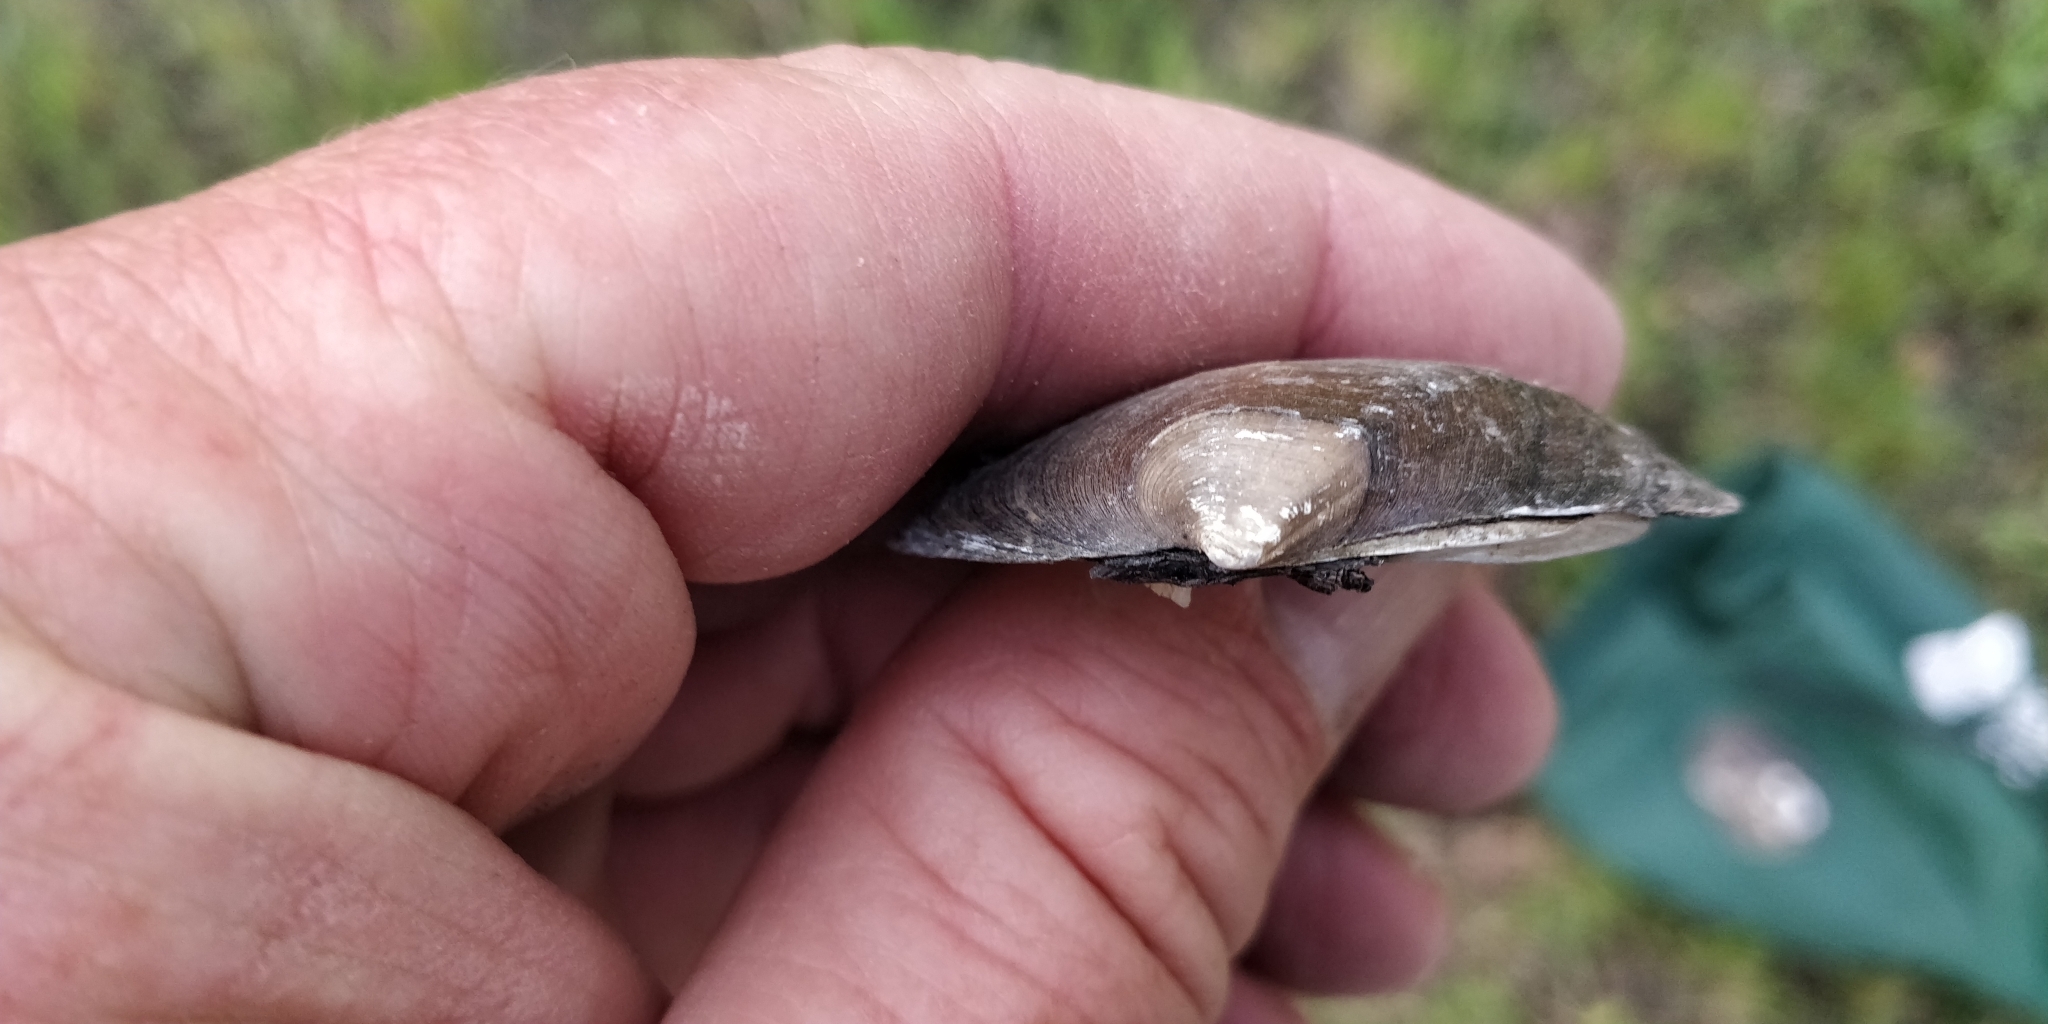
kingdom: Animalia
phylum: Mollusca
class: Bivalvia
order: Unionida
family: Unionidae
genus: Fusconaia
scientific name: Fusconaia flava
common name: Wabash pigtoe
